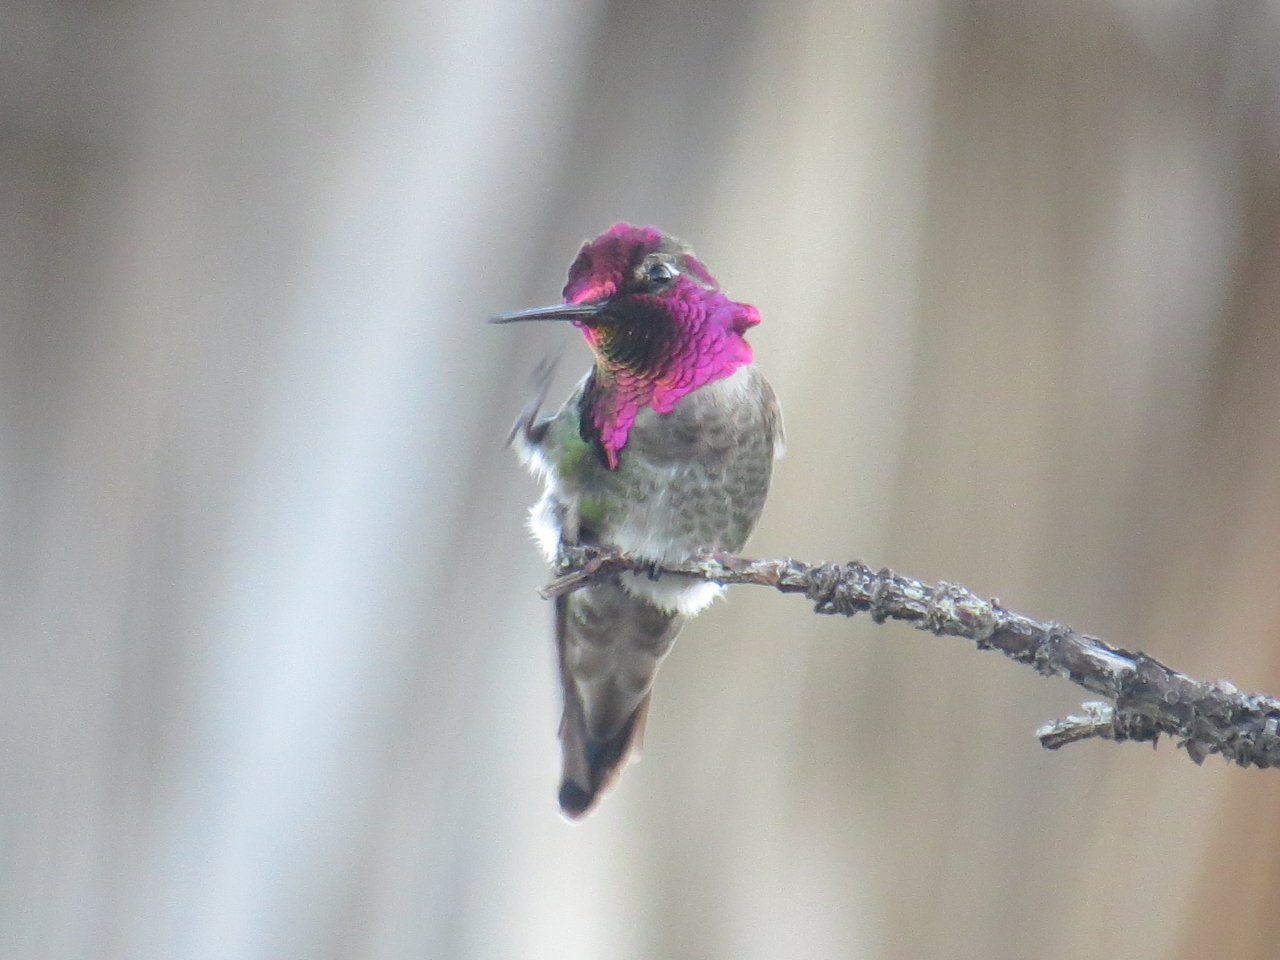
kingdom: Animalia
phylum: Chordata
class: Aves
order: Apodiformes
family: Trochilidae
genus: Calypte
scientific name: Calypte anna
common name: Anna's hummingbird
